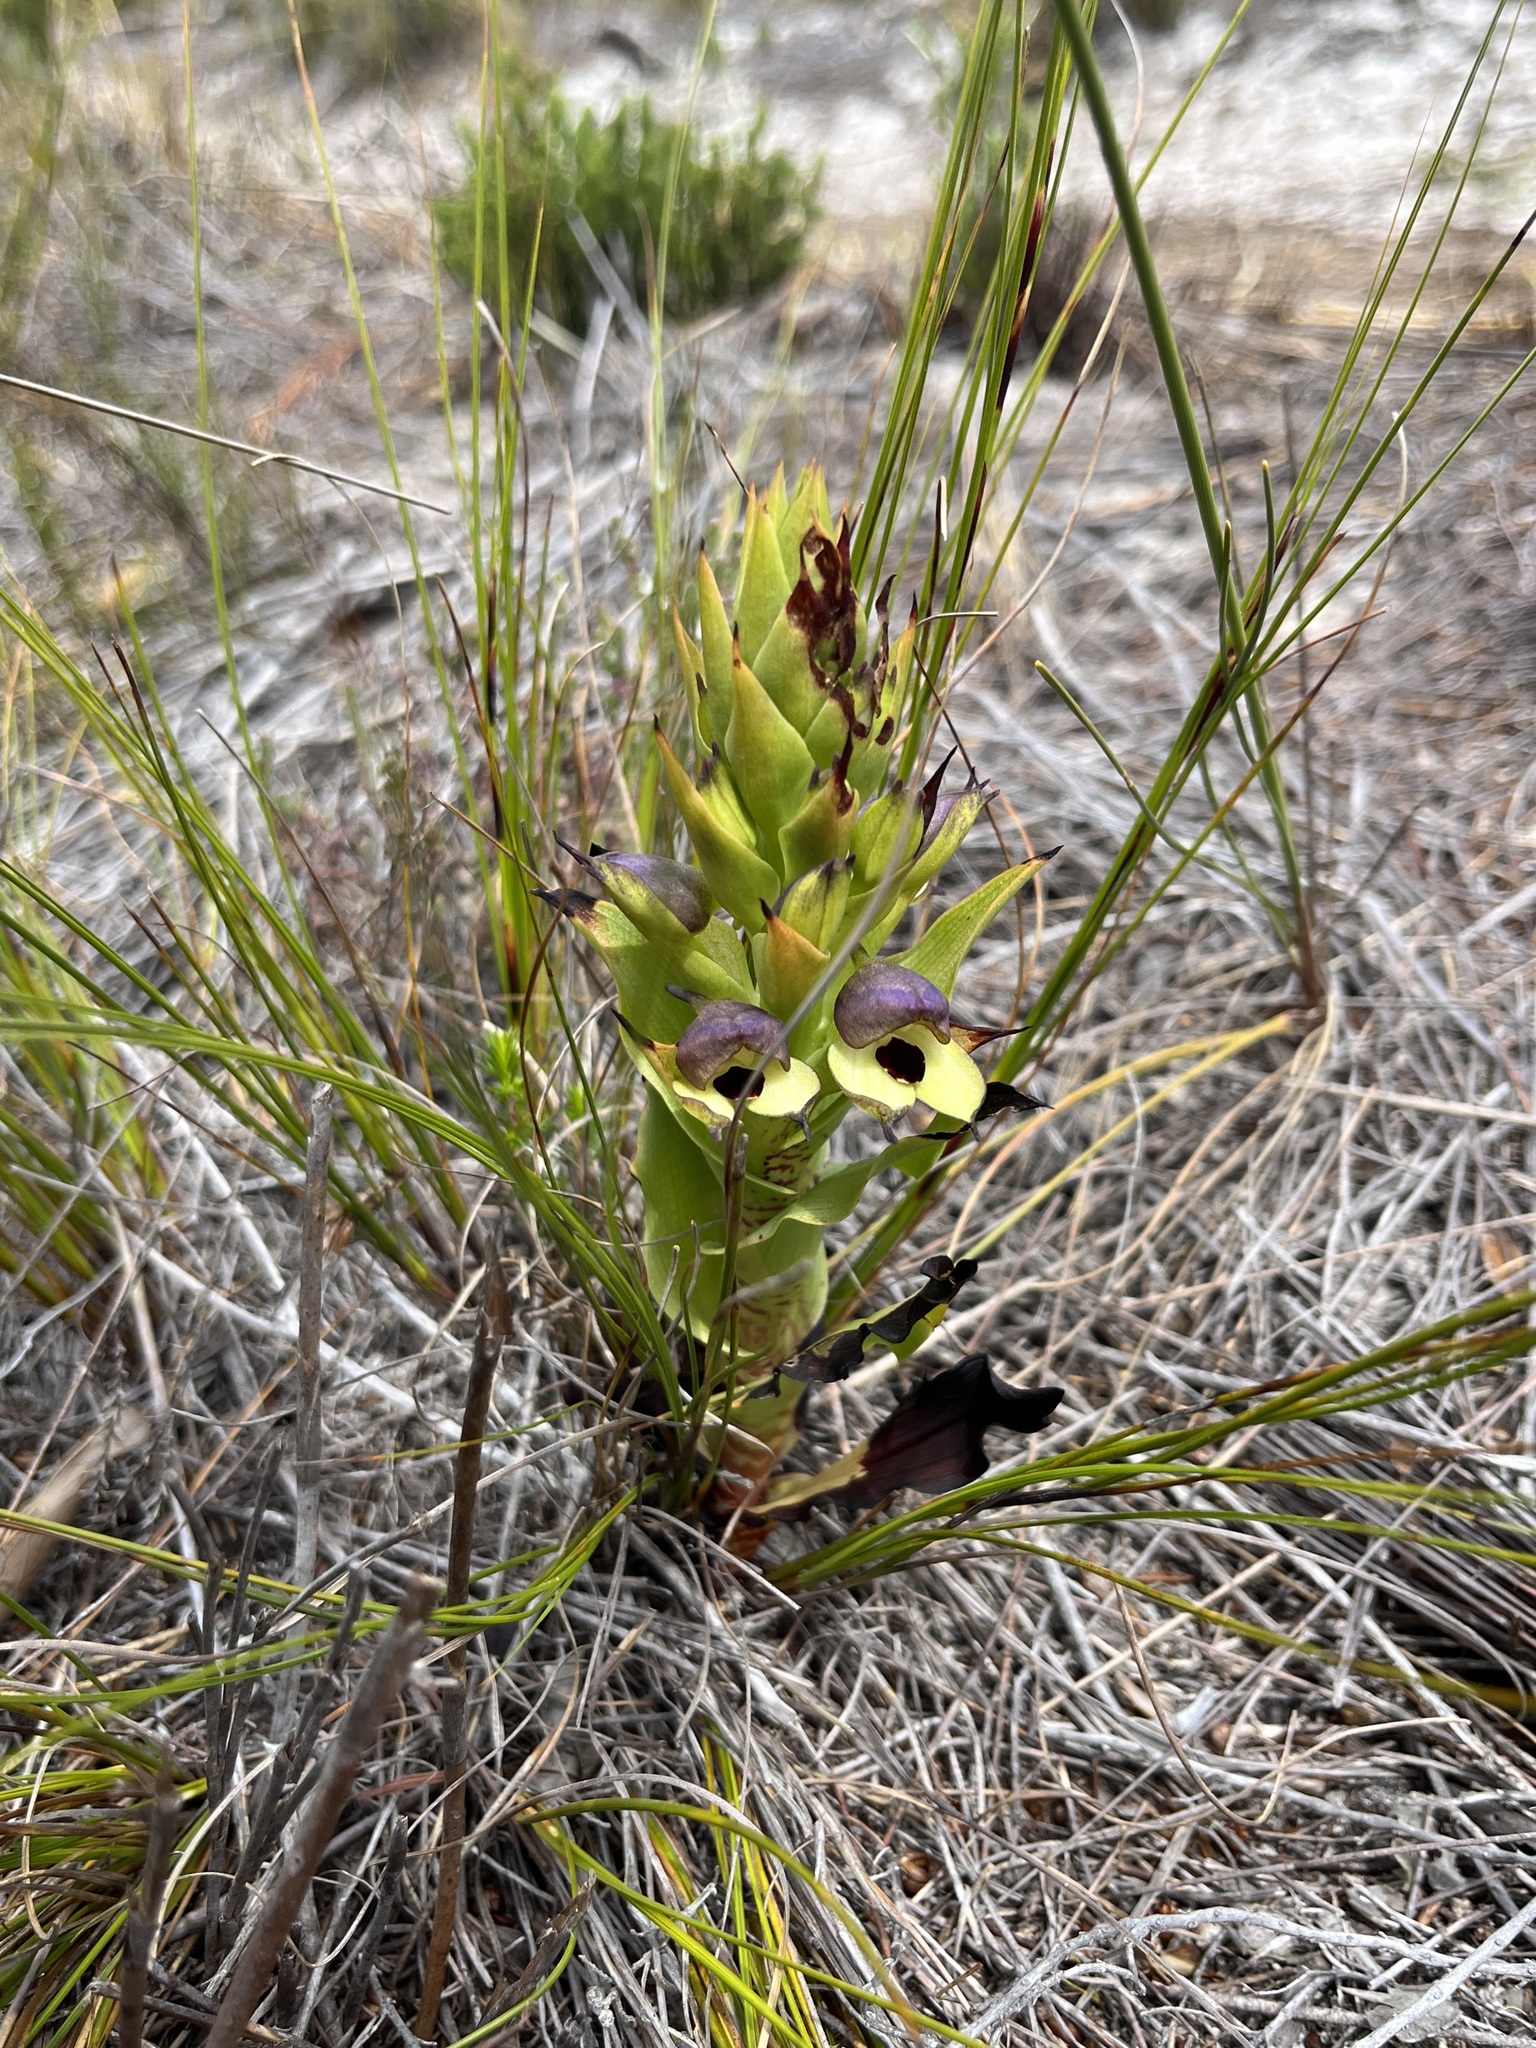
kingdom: Plantae
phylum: Tracheophyta
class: Liliopsida
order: Asparagales
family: Orchidaceae
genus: Disa
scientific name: Disa cornuta
